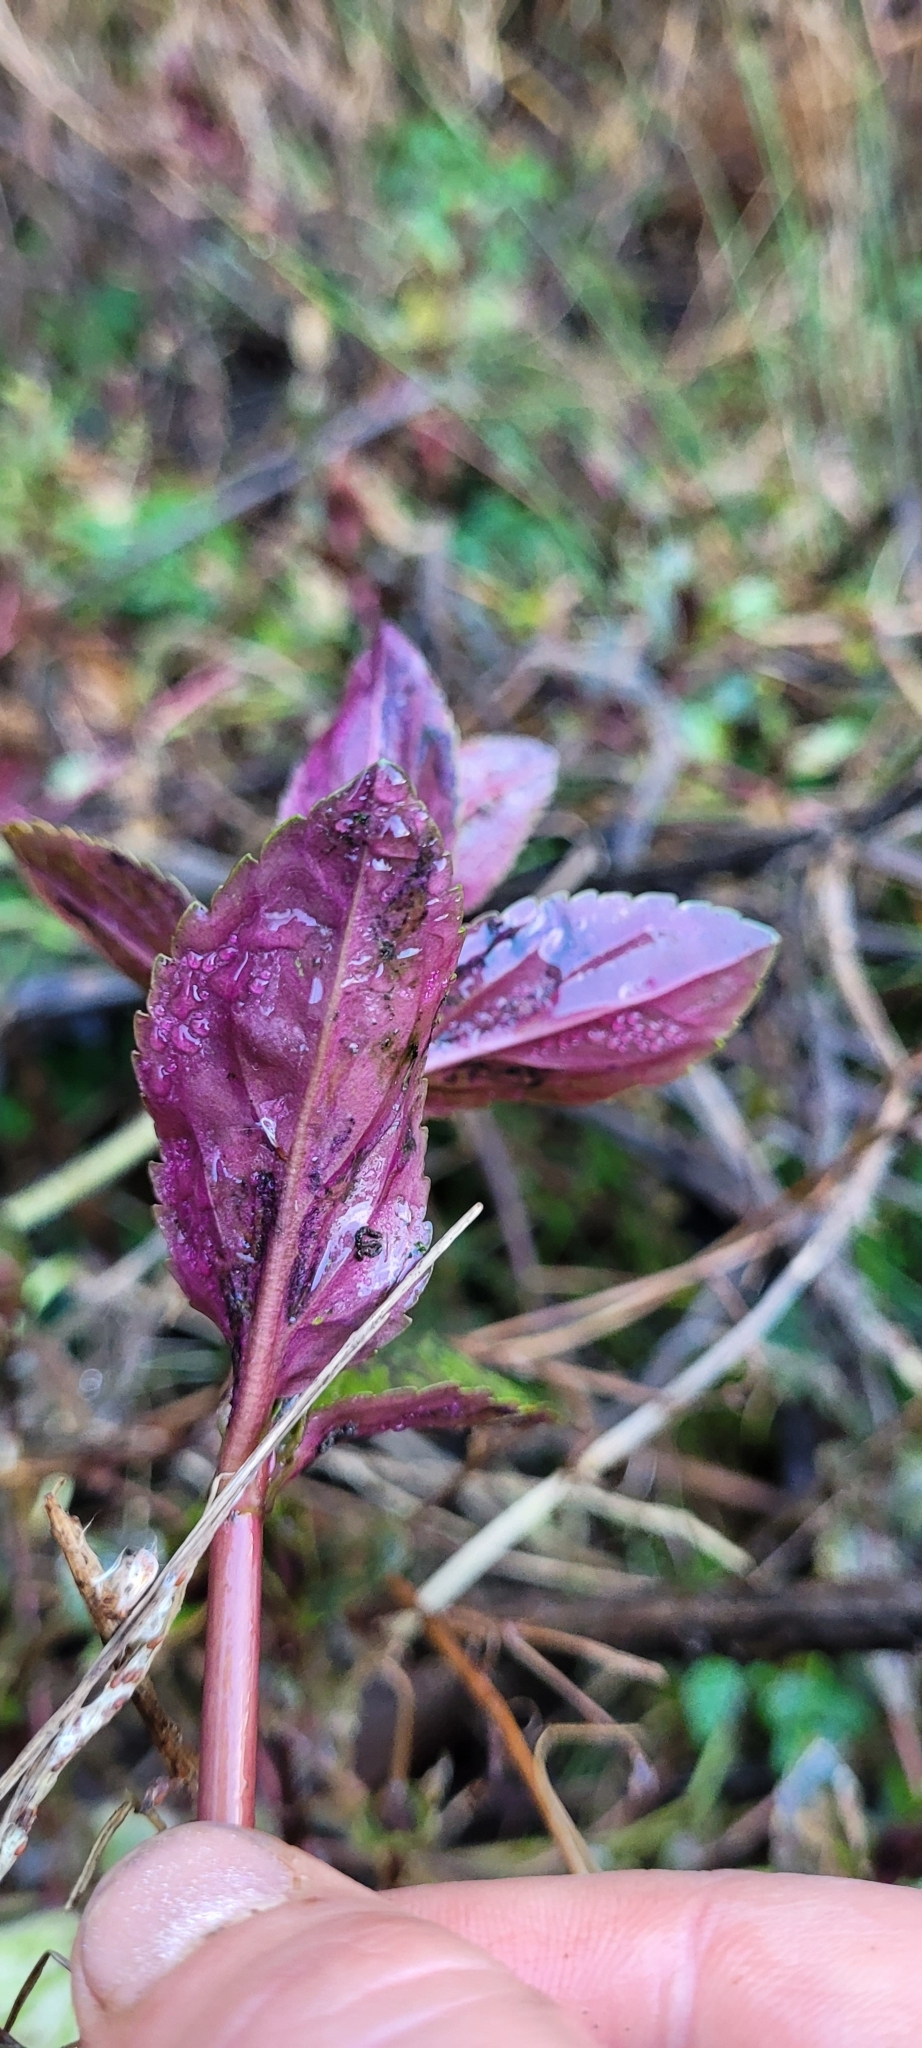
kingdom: Plantae
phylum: Tracheophyta
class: Magnoliopsida
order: Lamiales
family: Plantaginaceae
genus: Veronica
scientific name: Veronica americana
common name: American brooklime
